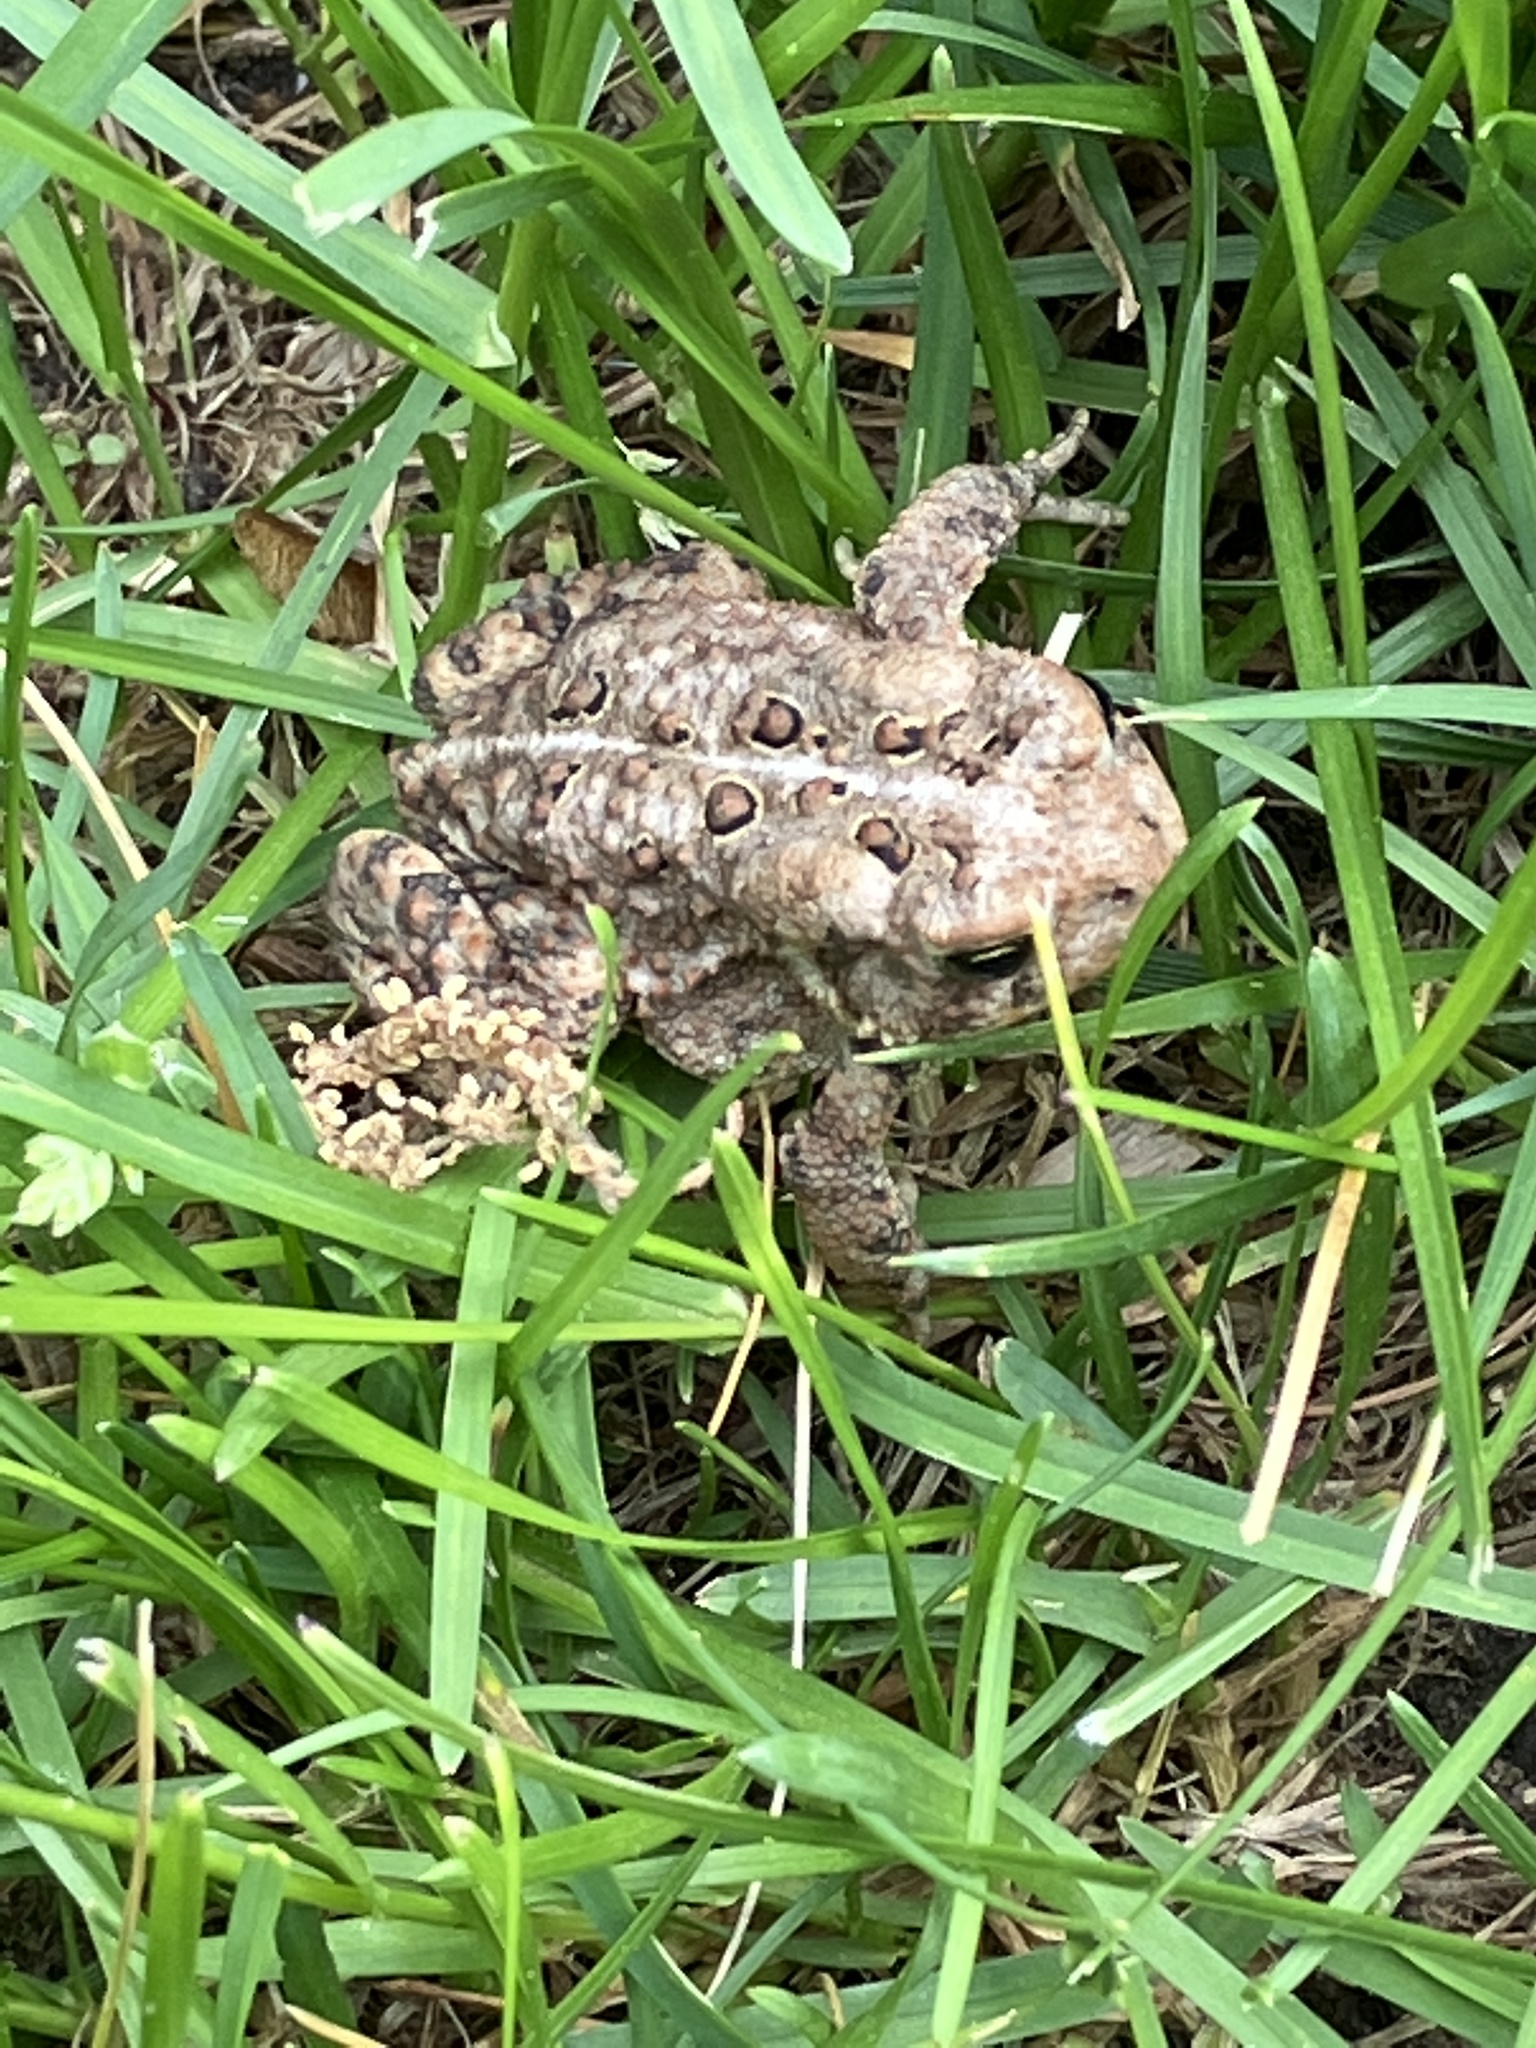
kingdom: Animalia
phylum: Chordata
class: Amphibia
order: Anura
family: Bufonidae
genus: Anaxyrus
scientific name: Anaxyrus americanus
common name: American toad
